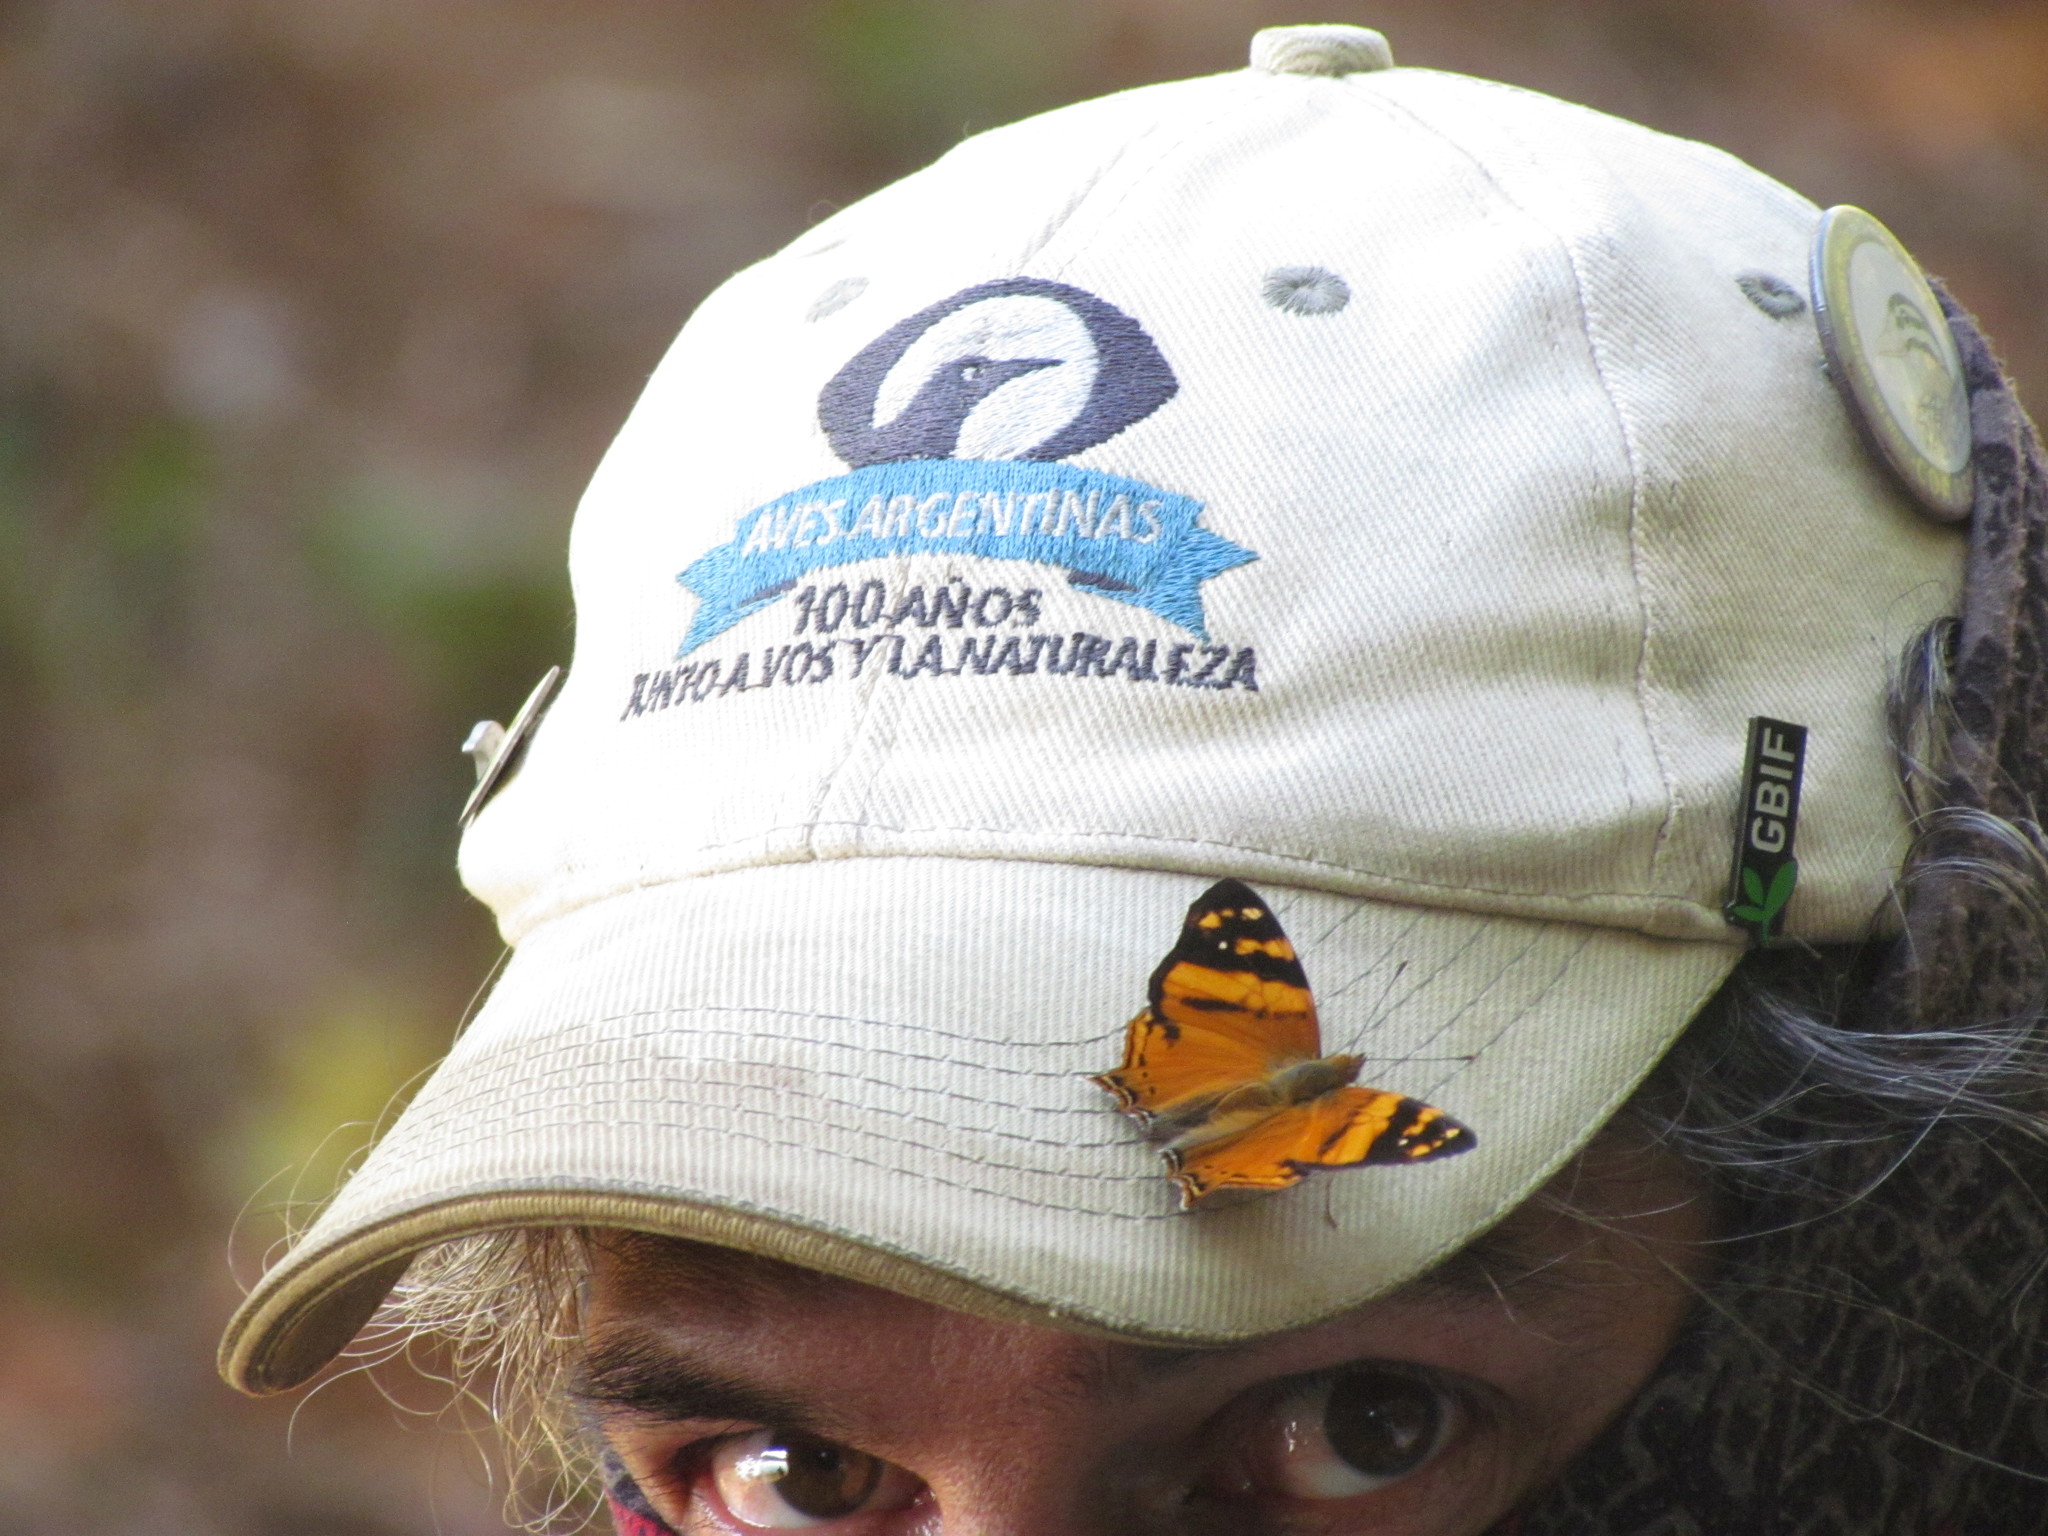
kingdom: Animalia
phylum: Arthropoda
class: Insecta
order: Lepidoptera
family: Nymphalidae
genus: Hypanartia
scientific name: Hypanartia lethe
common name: Orange mapwing
